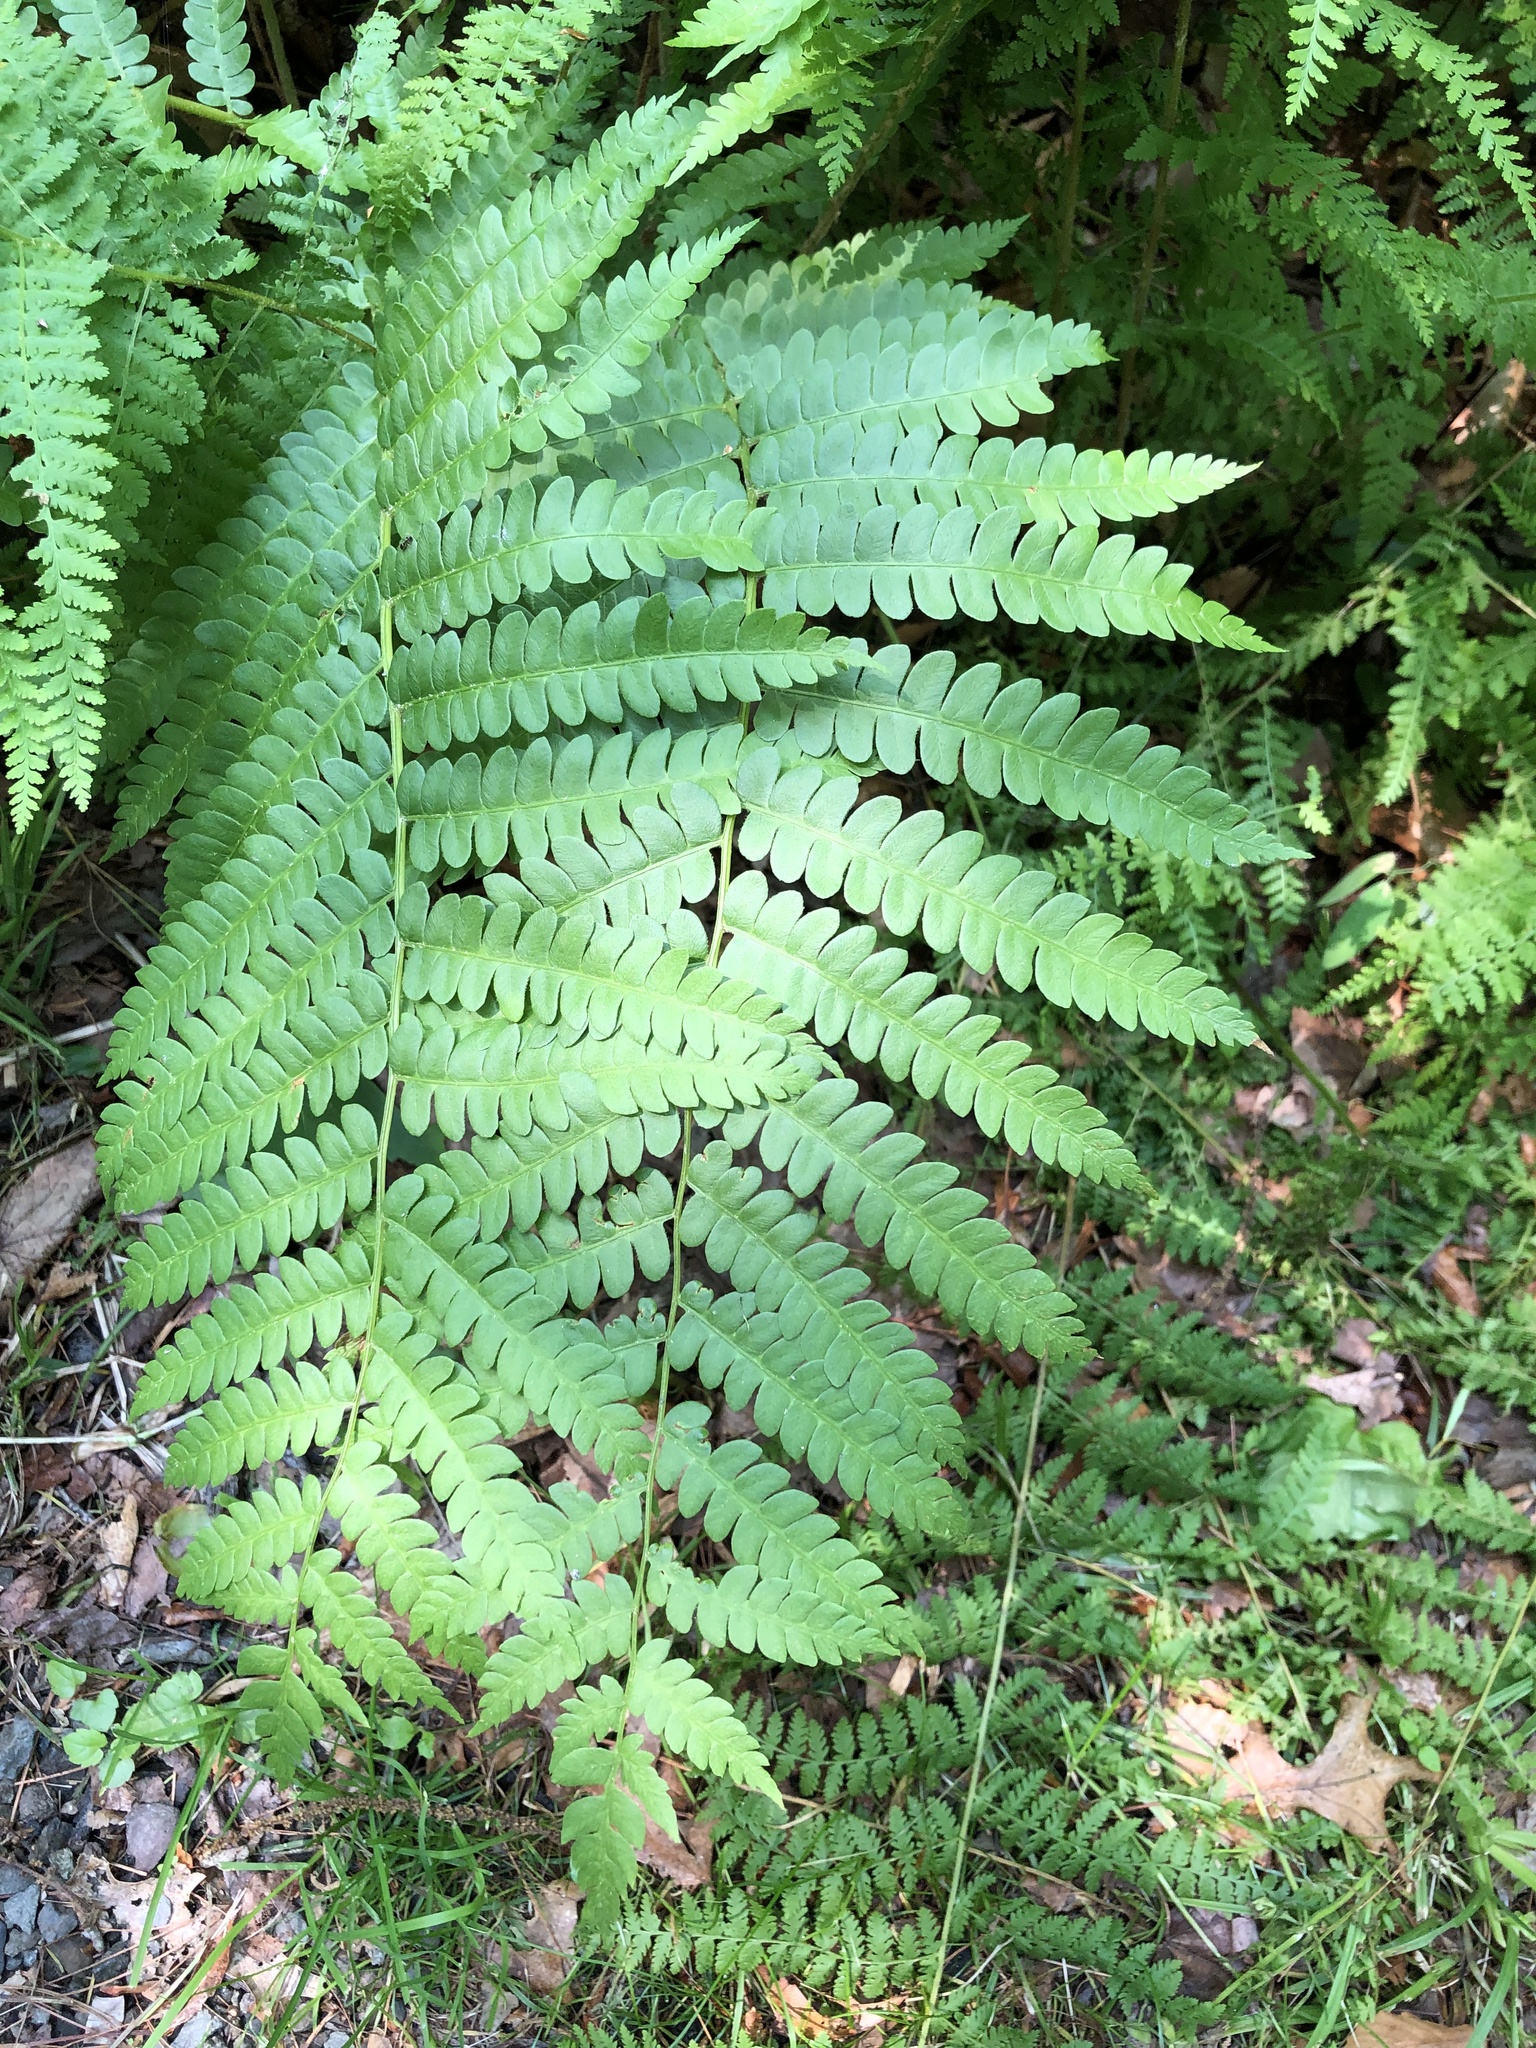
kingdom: Plantae
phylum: Tracheophyta
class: Polypodiopsida
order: Osmundales
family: Osmundaceae
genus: Osmundastrum
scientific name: Osmundastrum cinnamomeum
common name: Cinnamon fern
